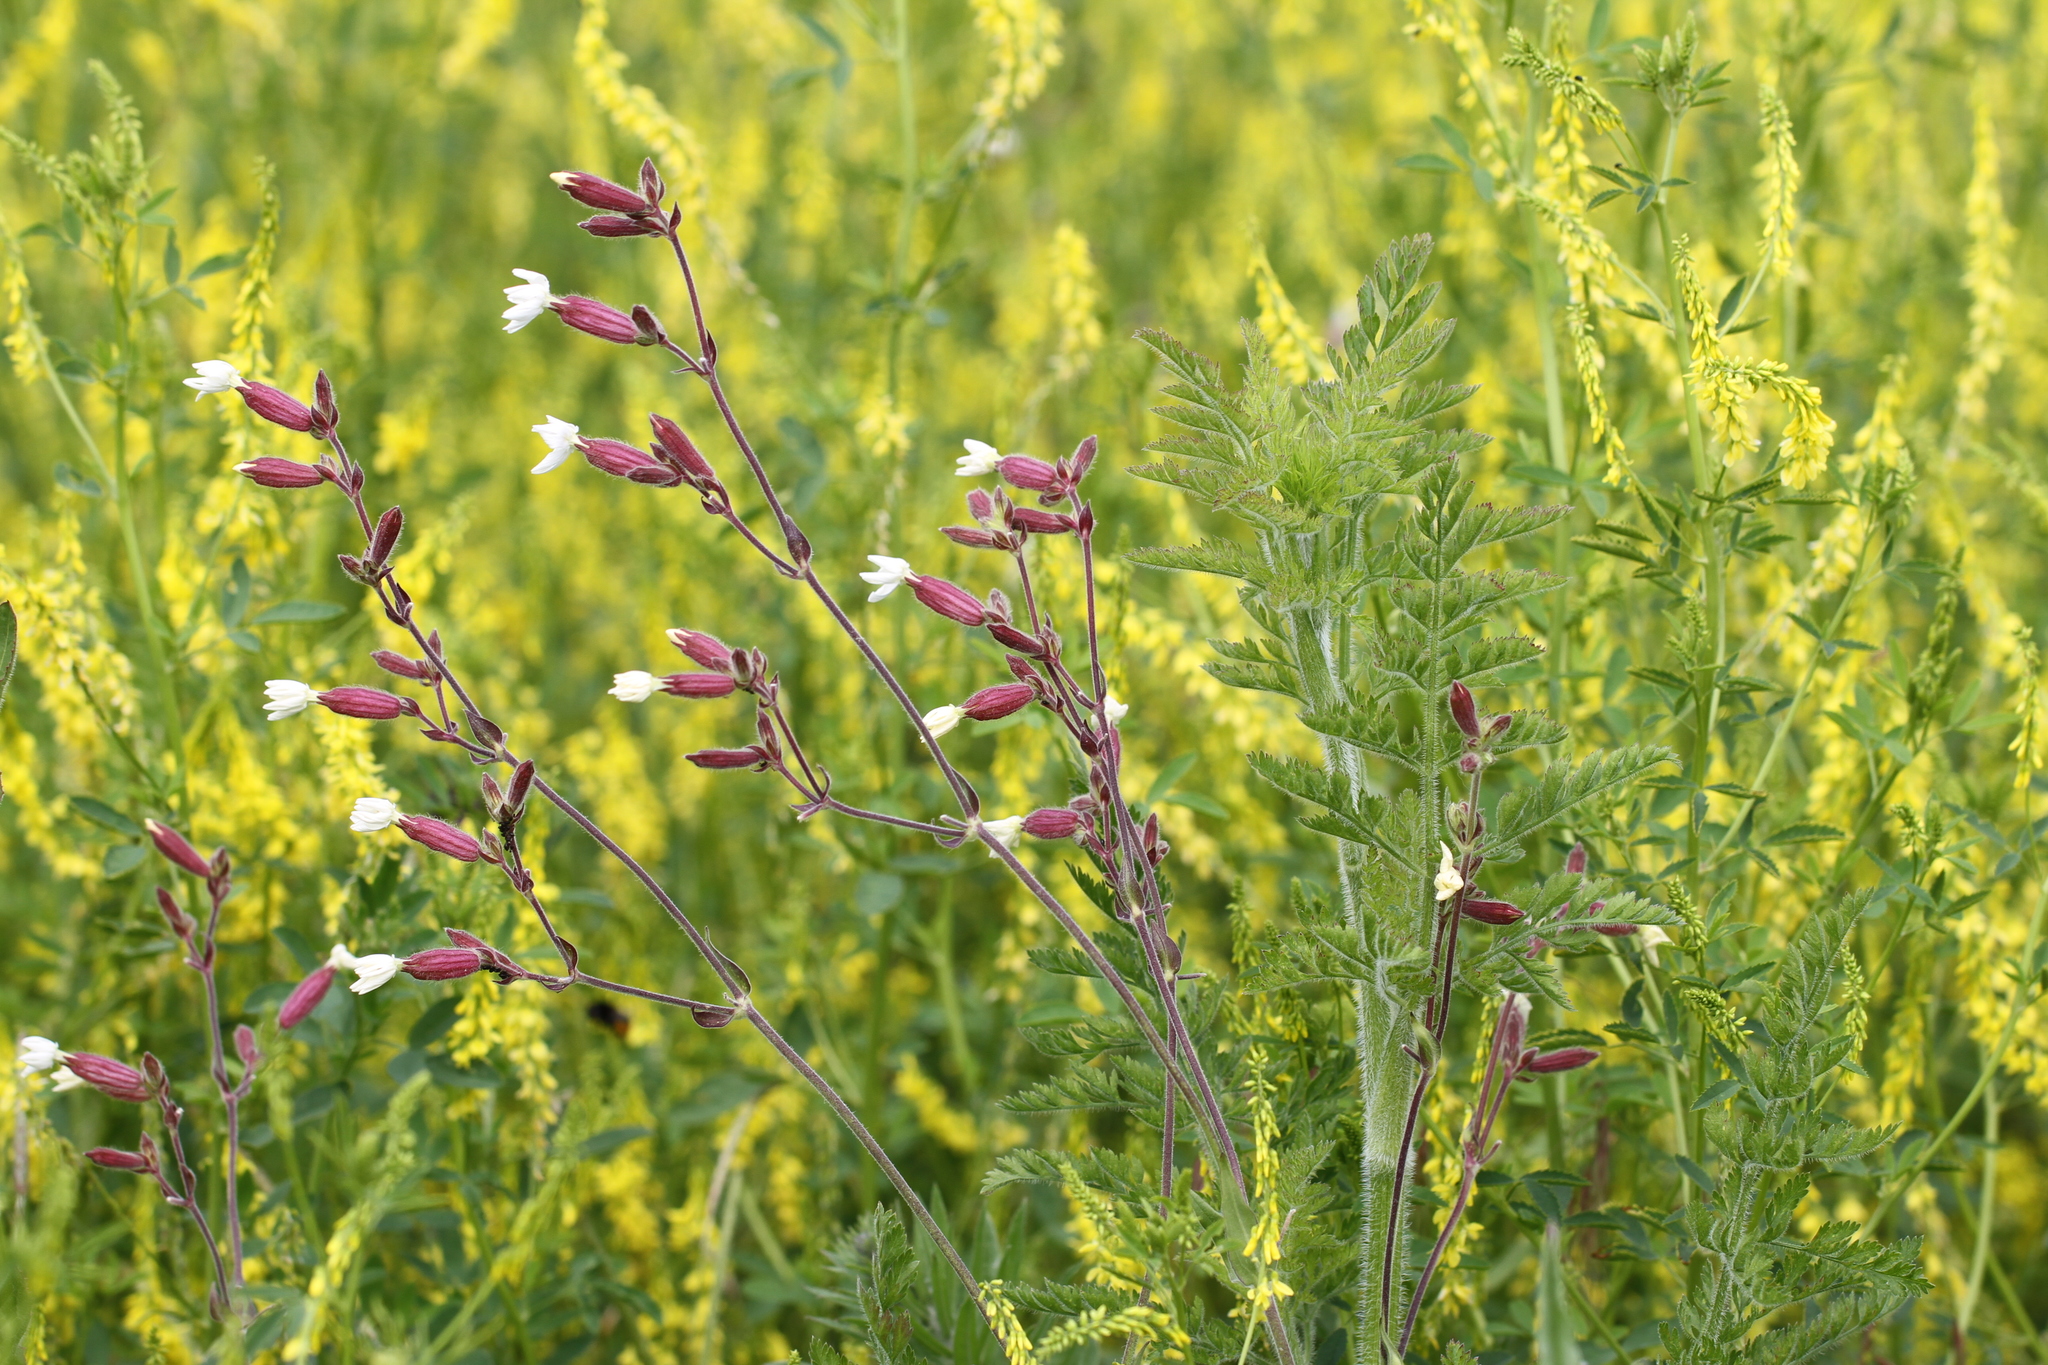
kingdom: Plantae
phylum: Tracheophyta
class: Magnoliopsida
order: Caryophyllales
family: Caryophyllaceae
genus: Silene
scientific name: Silene nutans
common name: Nottingham catchfly
